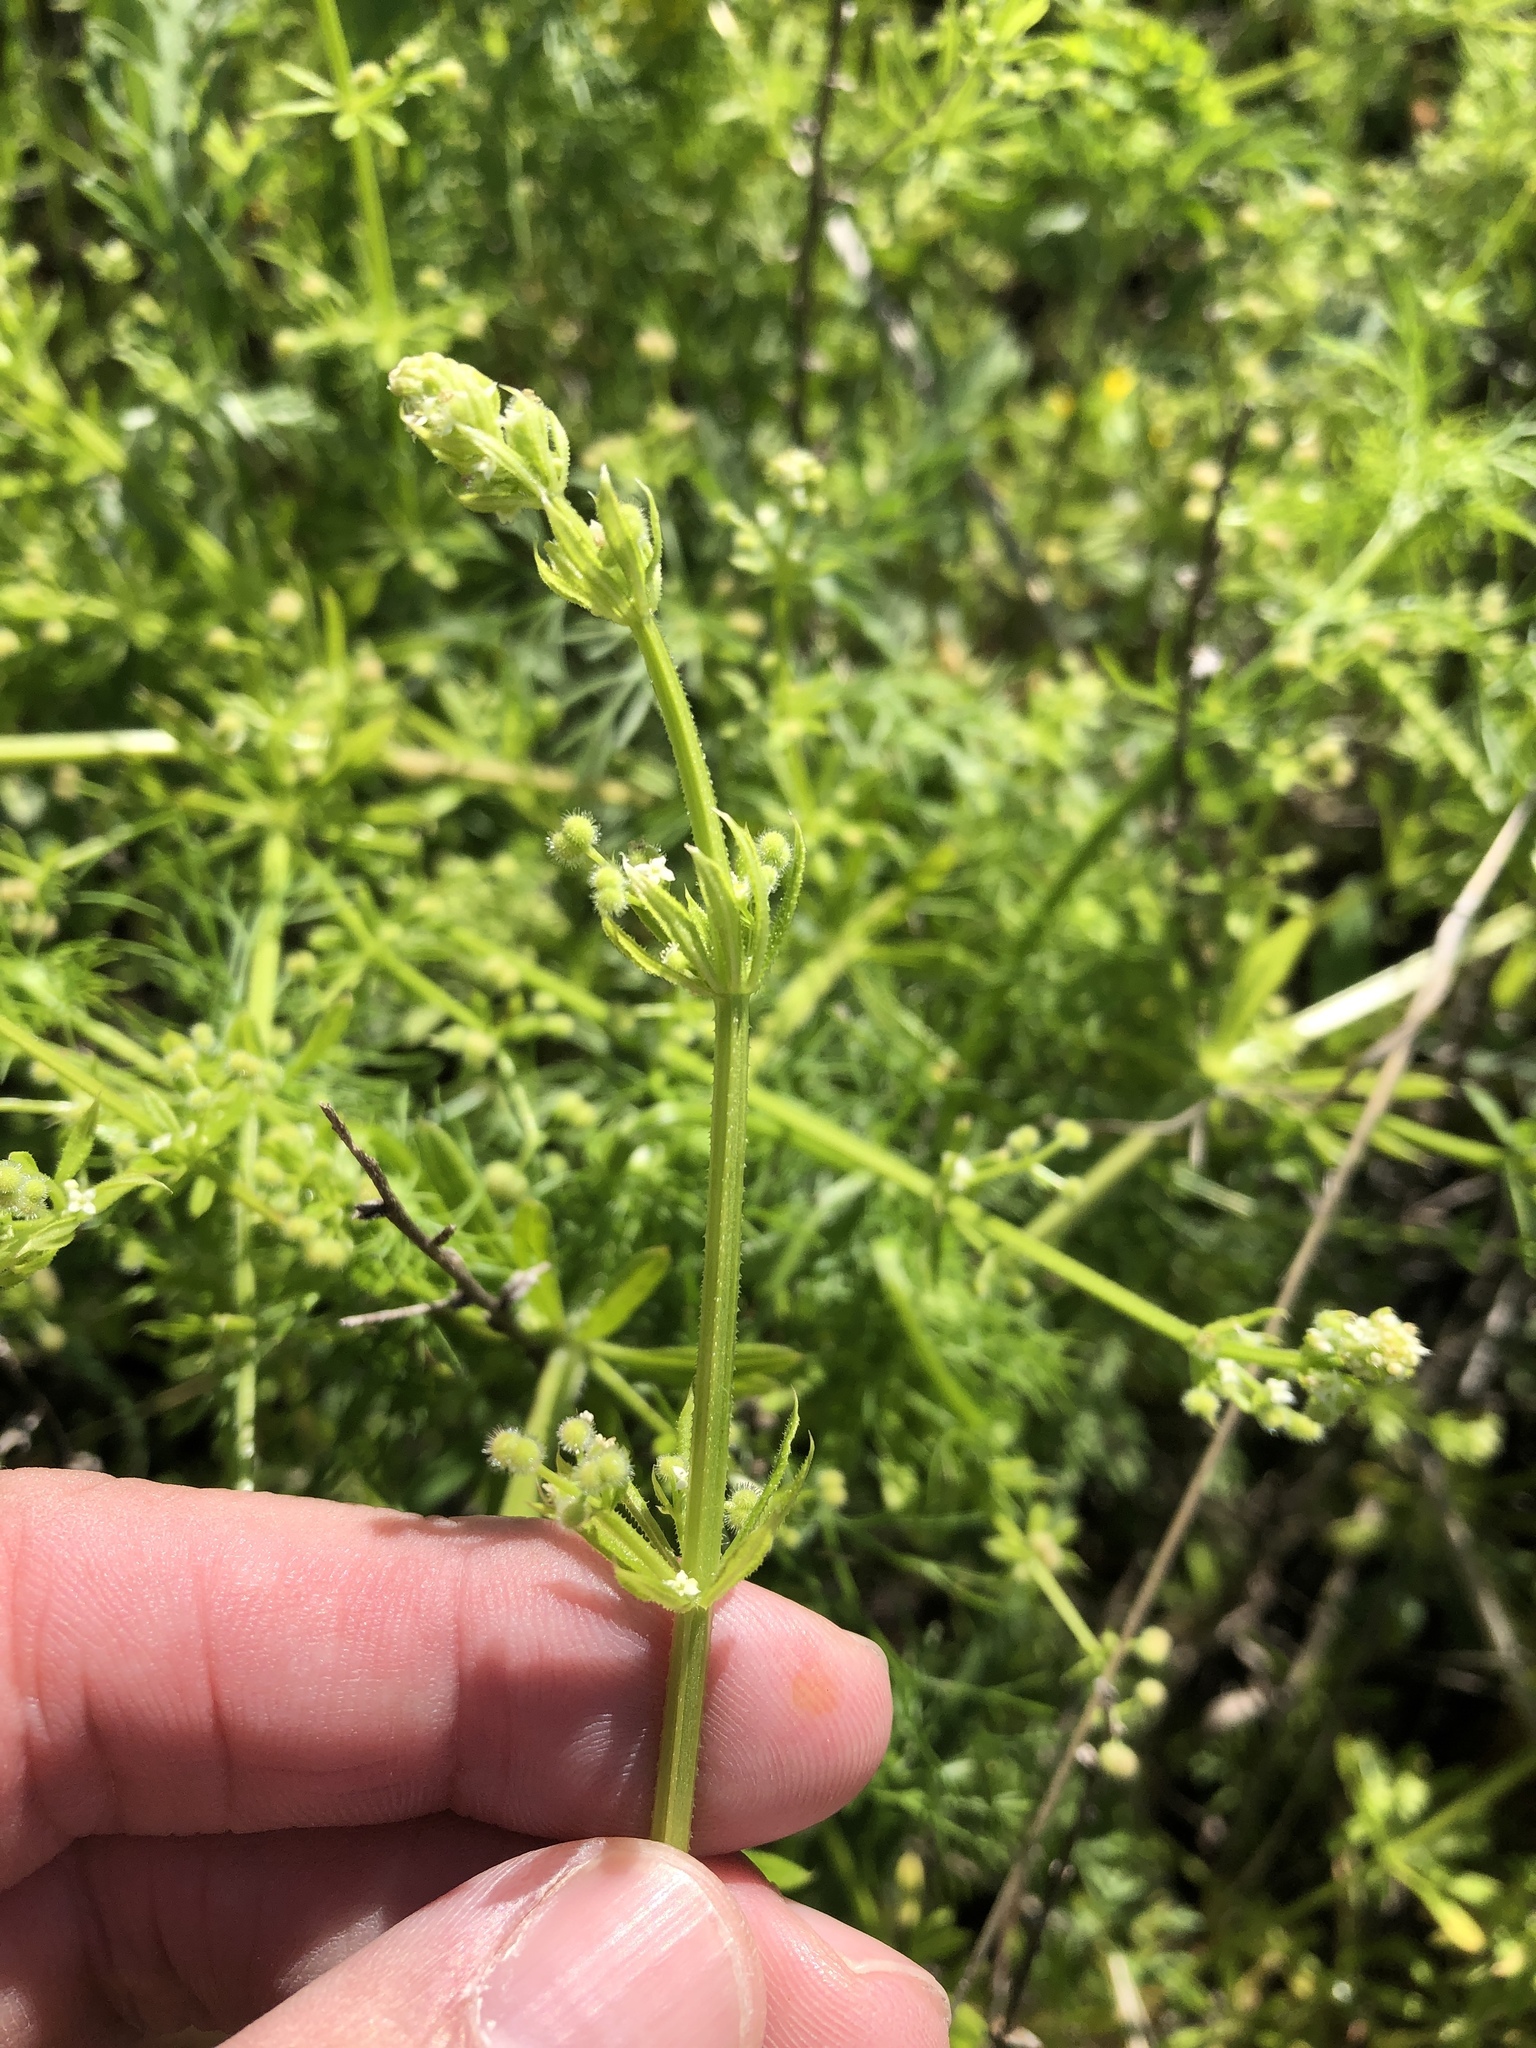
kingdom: Plantae
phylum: Tracheophyta
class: Magnoliopsida
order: Gentianales
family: Rubiaceae
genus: Galium
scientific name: Galium aparine
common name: Cleavers
